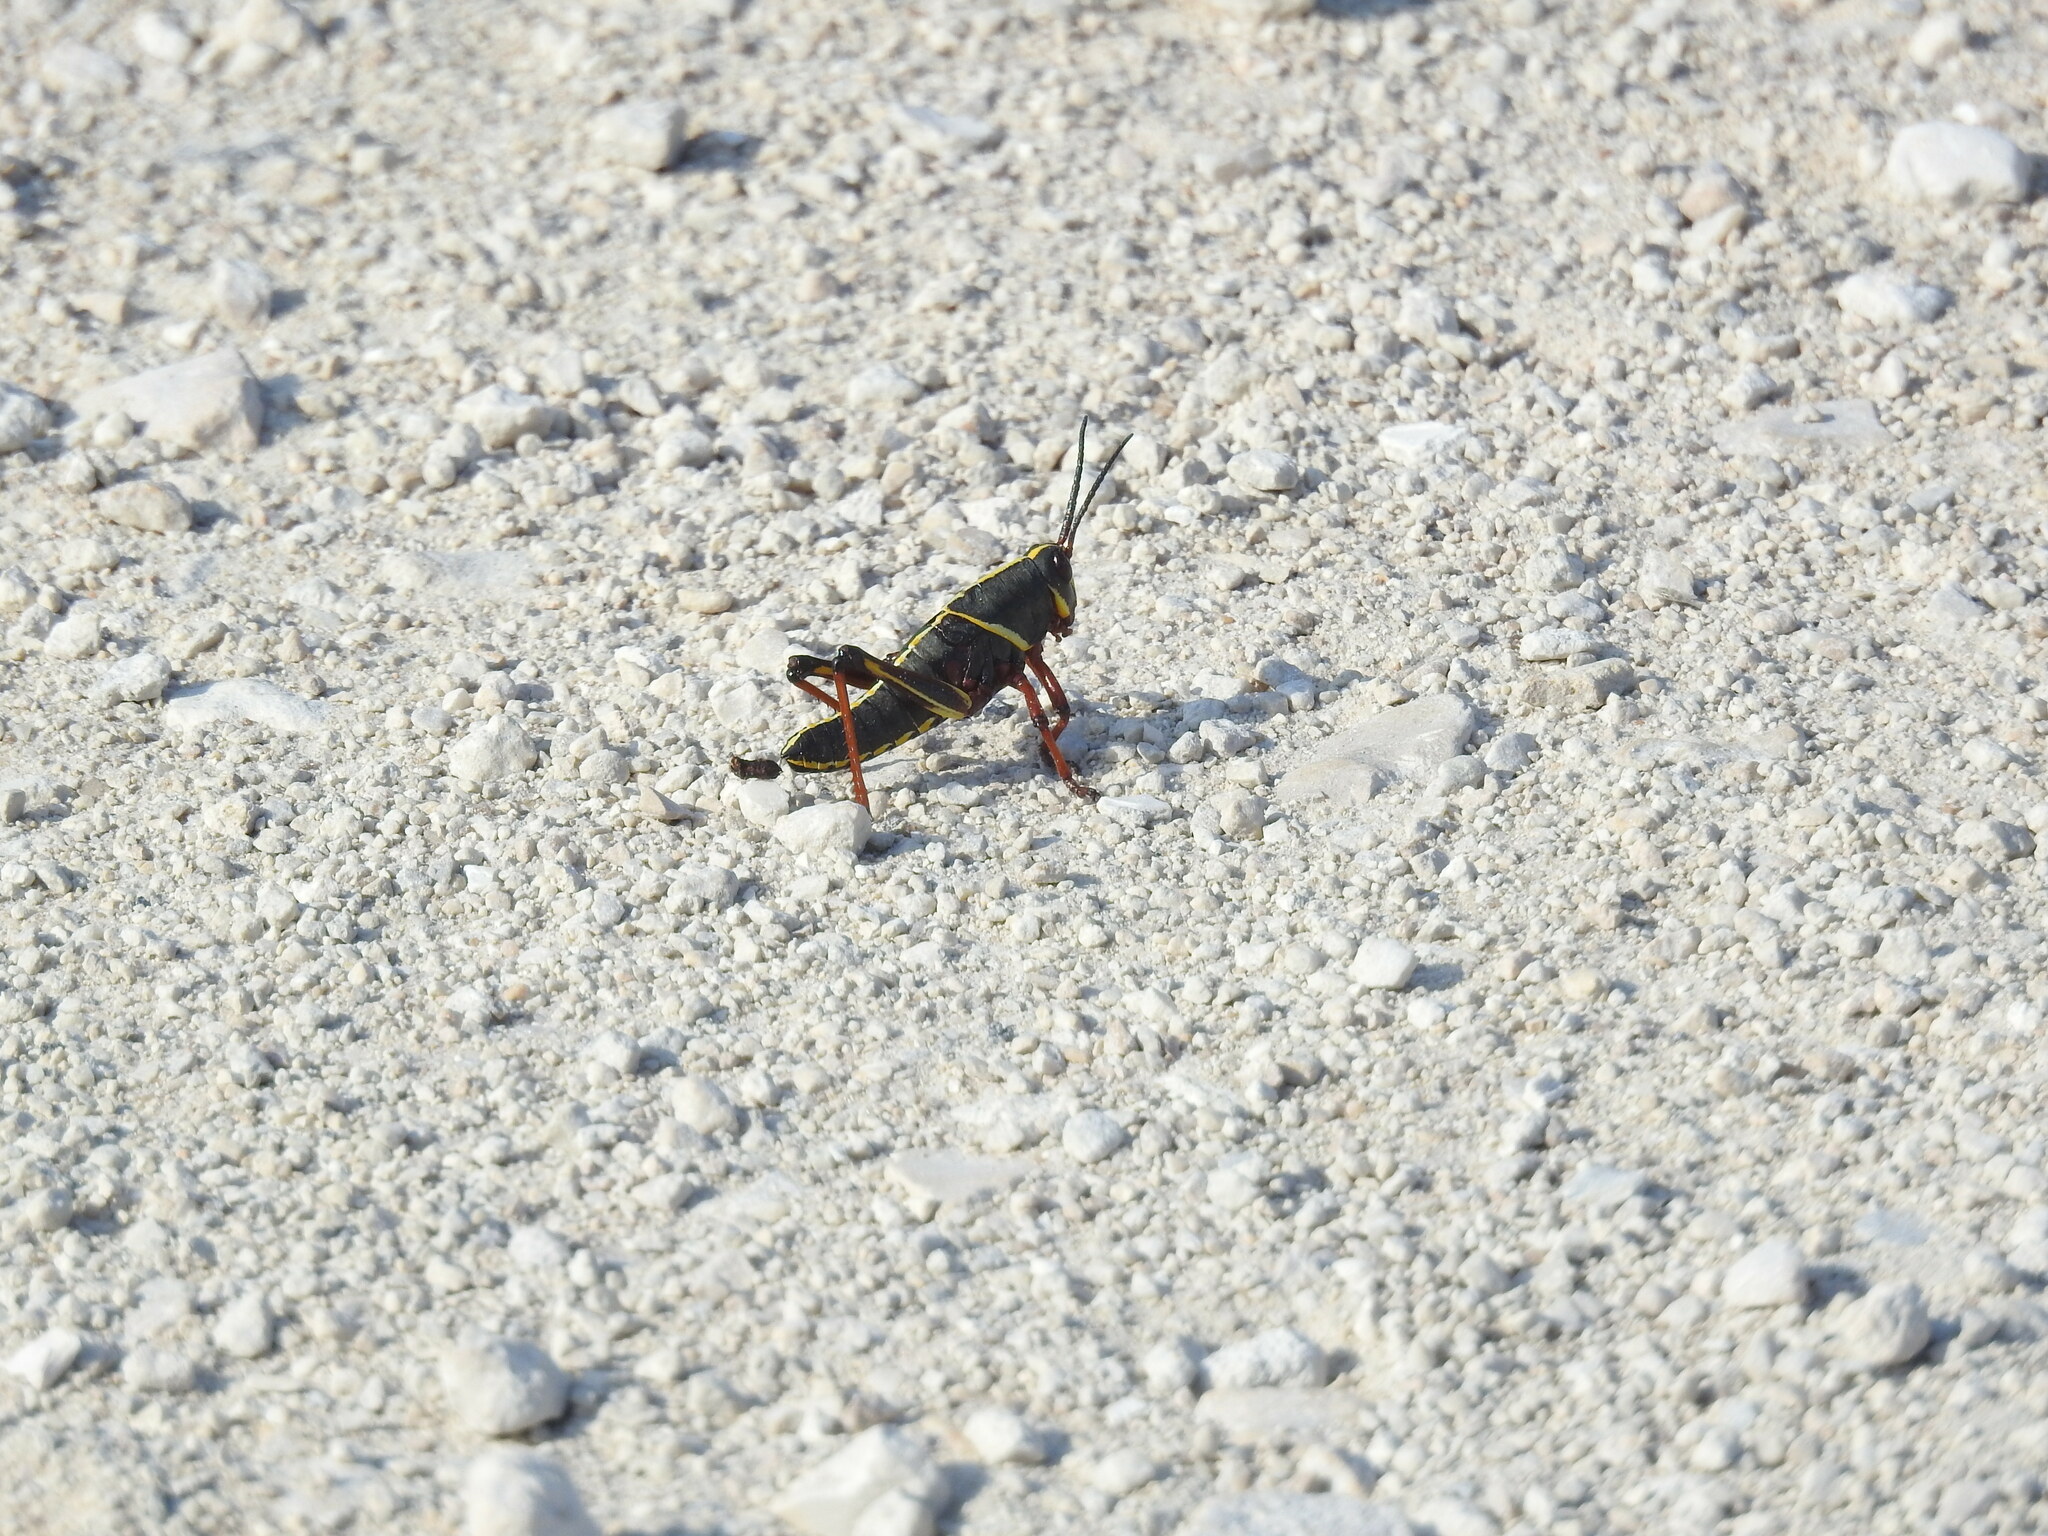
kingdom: Animalia
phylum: Arthropoda
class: Insecta
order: Orthoptera
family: Romaleidae
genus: Romalea
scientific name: Romalea microptera
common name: Eastern lubber grasshopper
